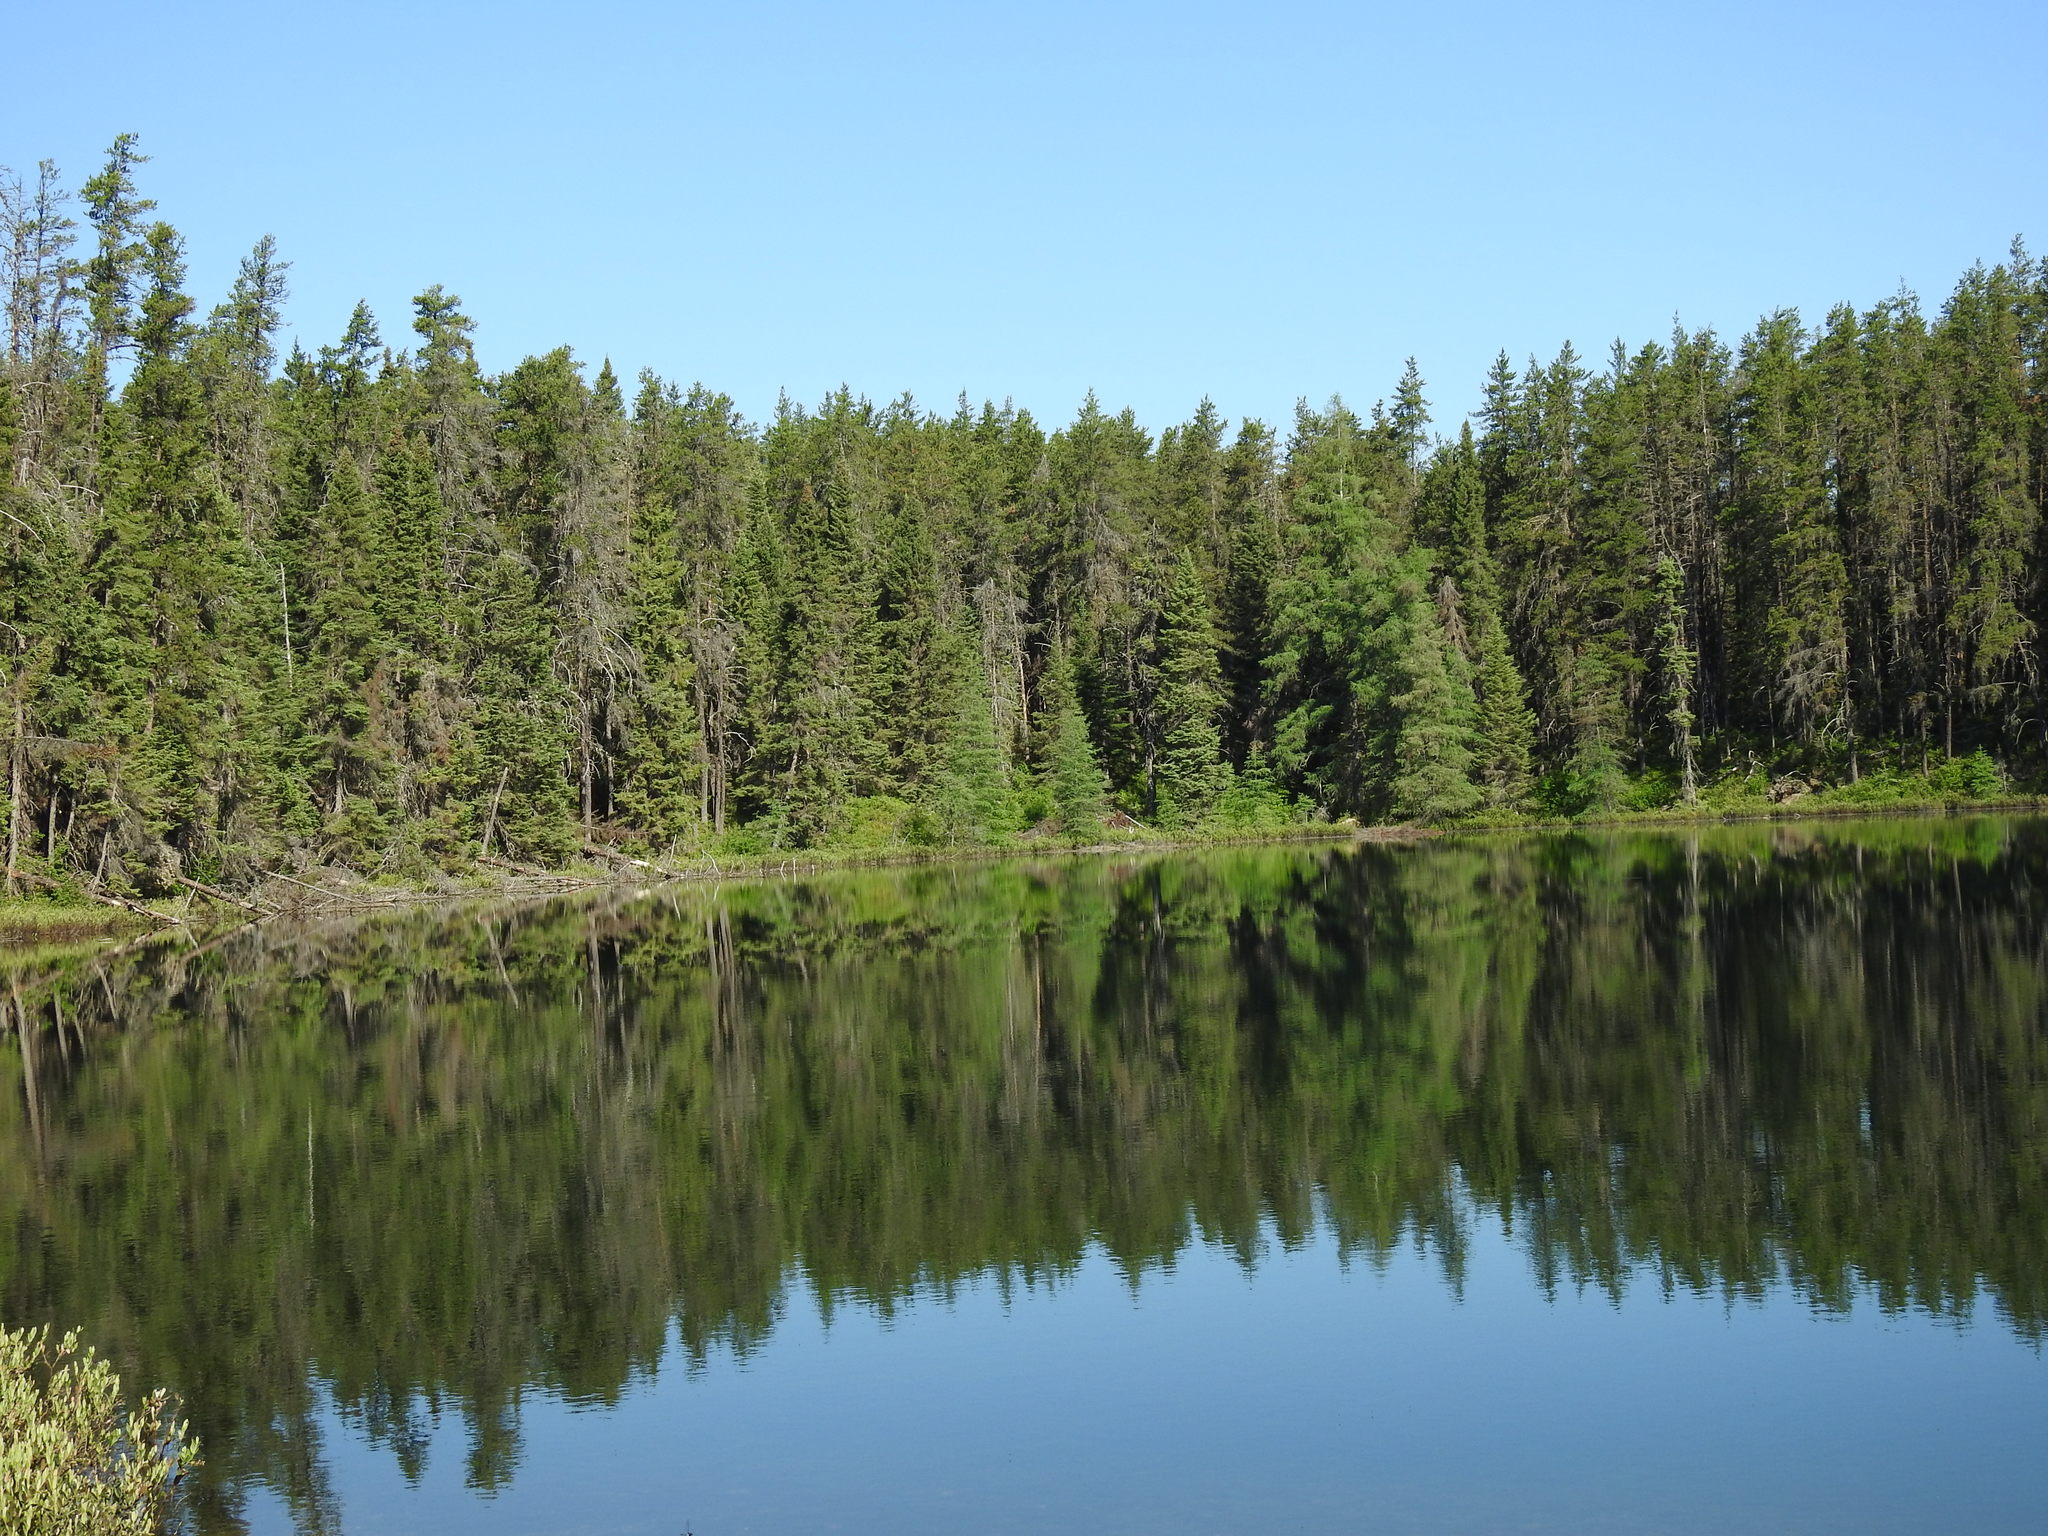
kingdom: Plantae
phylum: Tracheophyta
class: Pinopsida
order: Pinales
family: Pinaceae
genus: Pinus
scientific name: Pinus banksiana
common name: Jack pine
